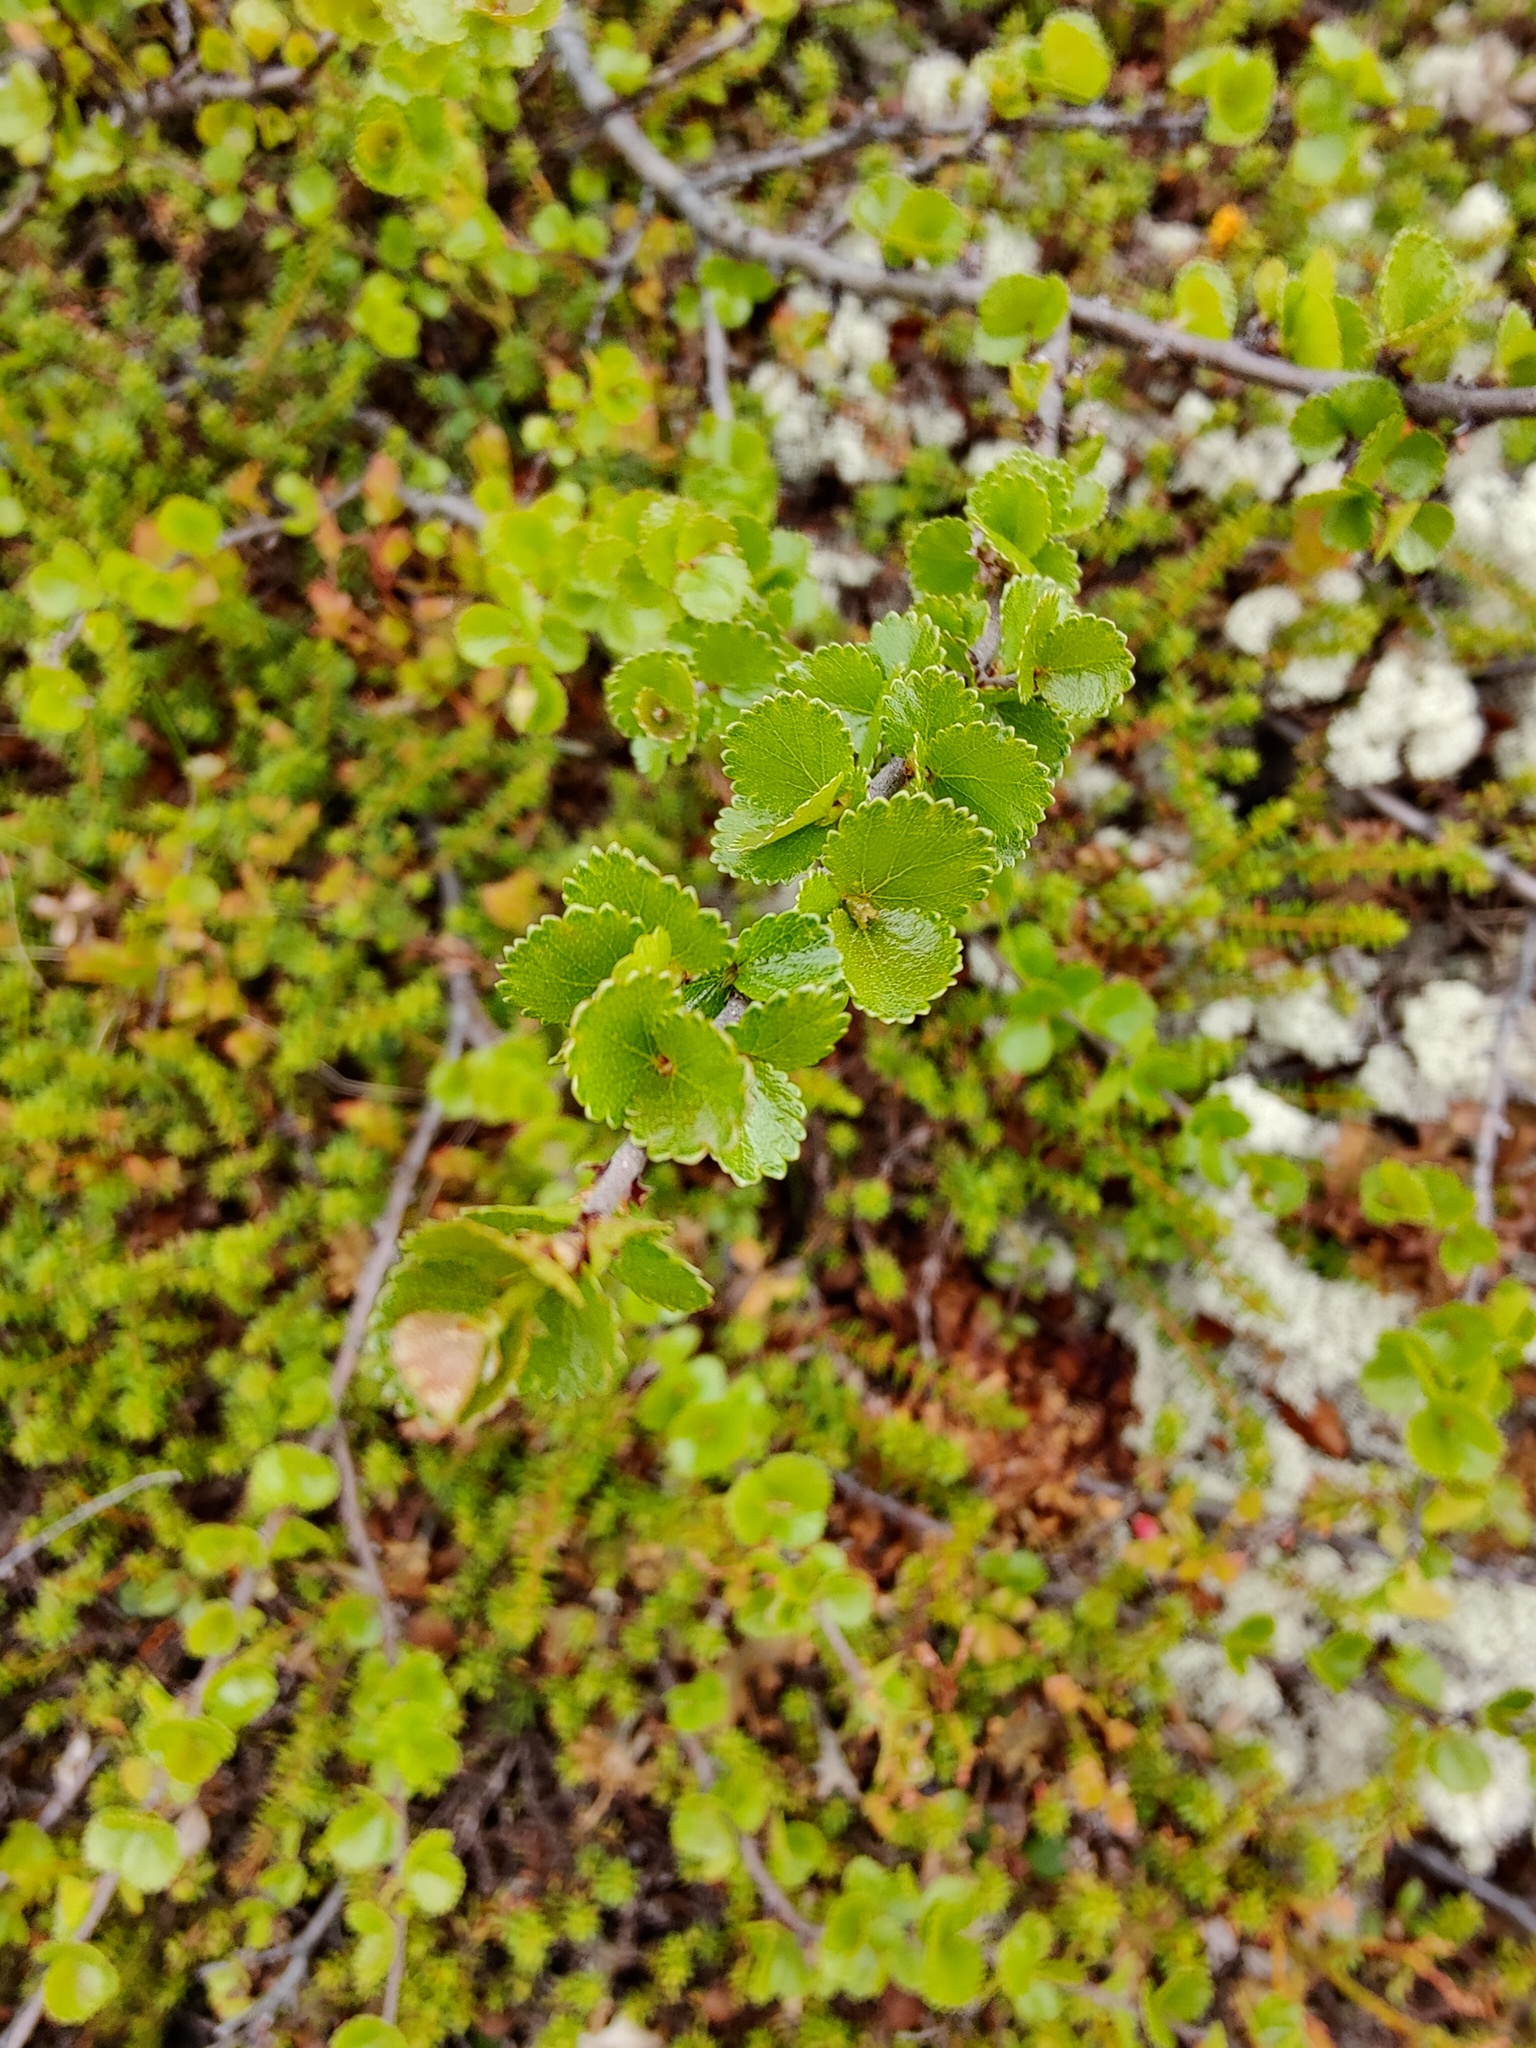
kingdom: Plantae
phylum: Tracheophyta
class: Magnoliopsida
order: Fagales
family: Betulaceae
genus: Betula
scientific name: Betula nana
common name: Arctic dwarf birch
